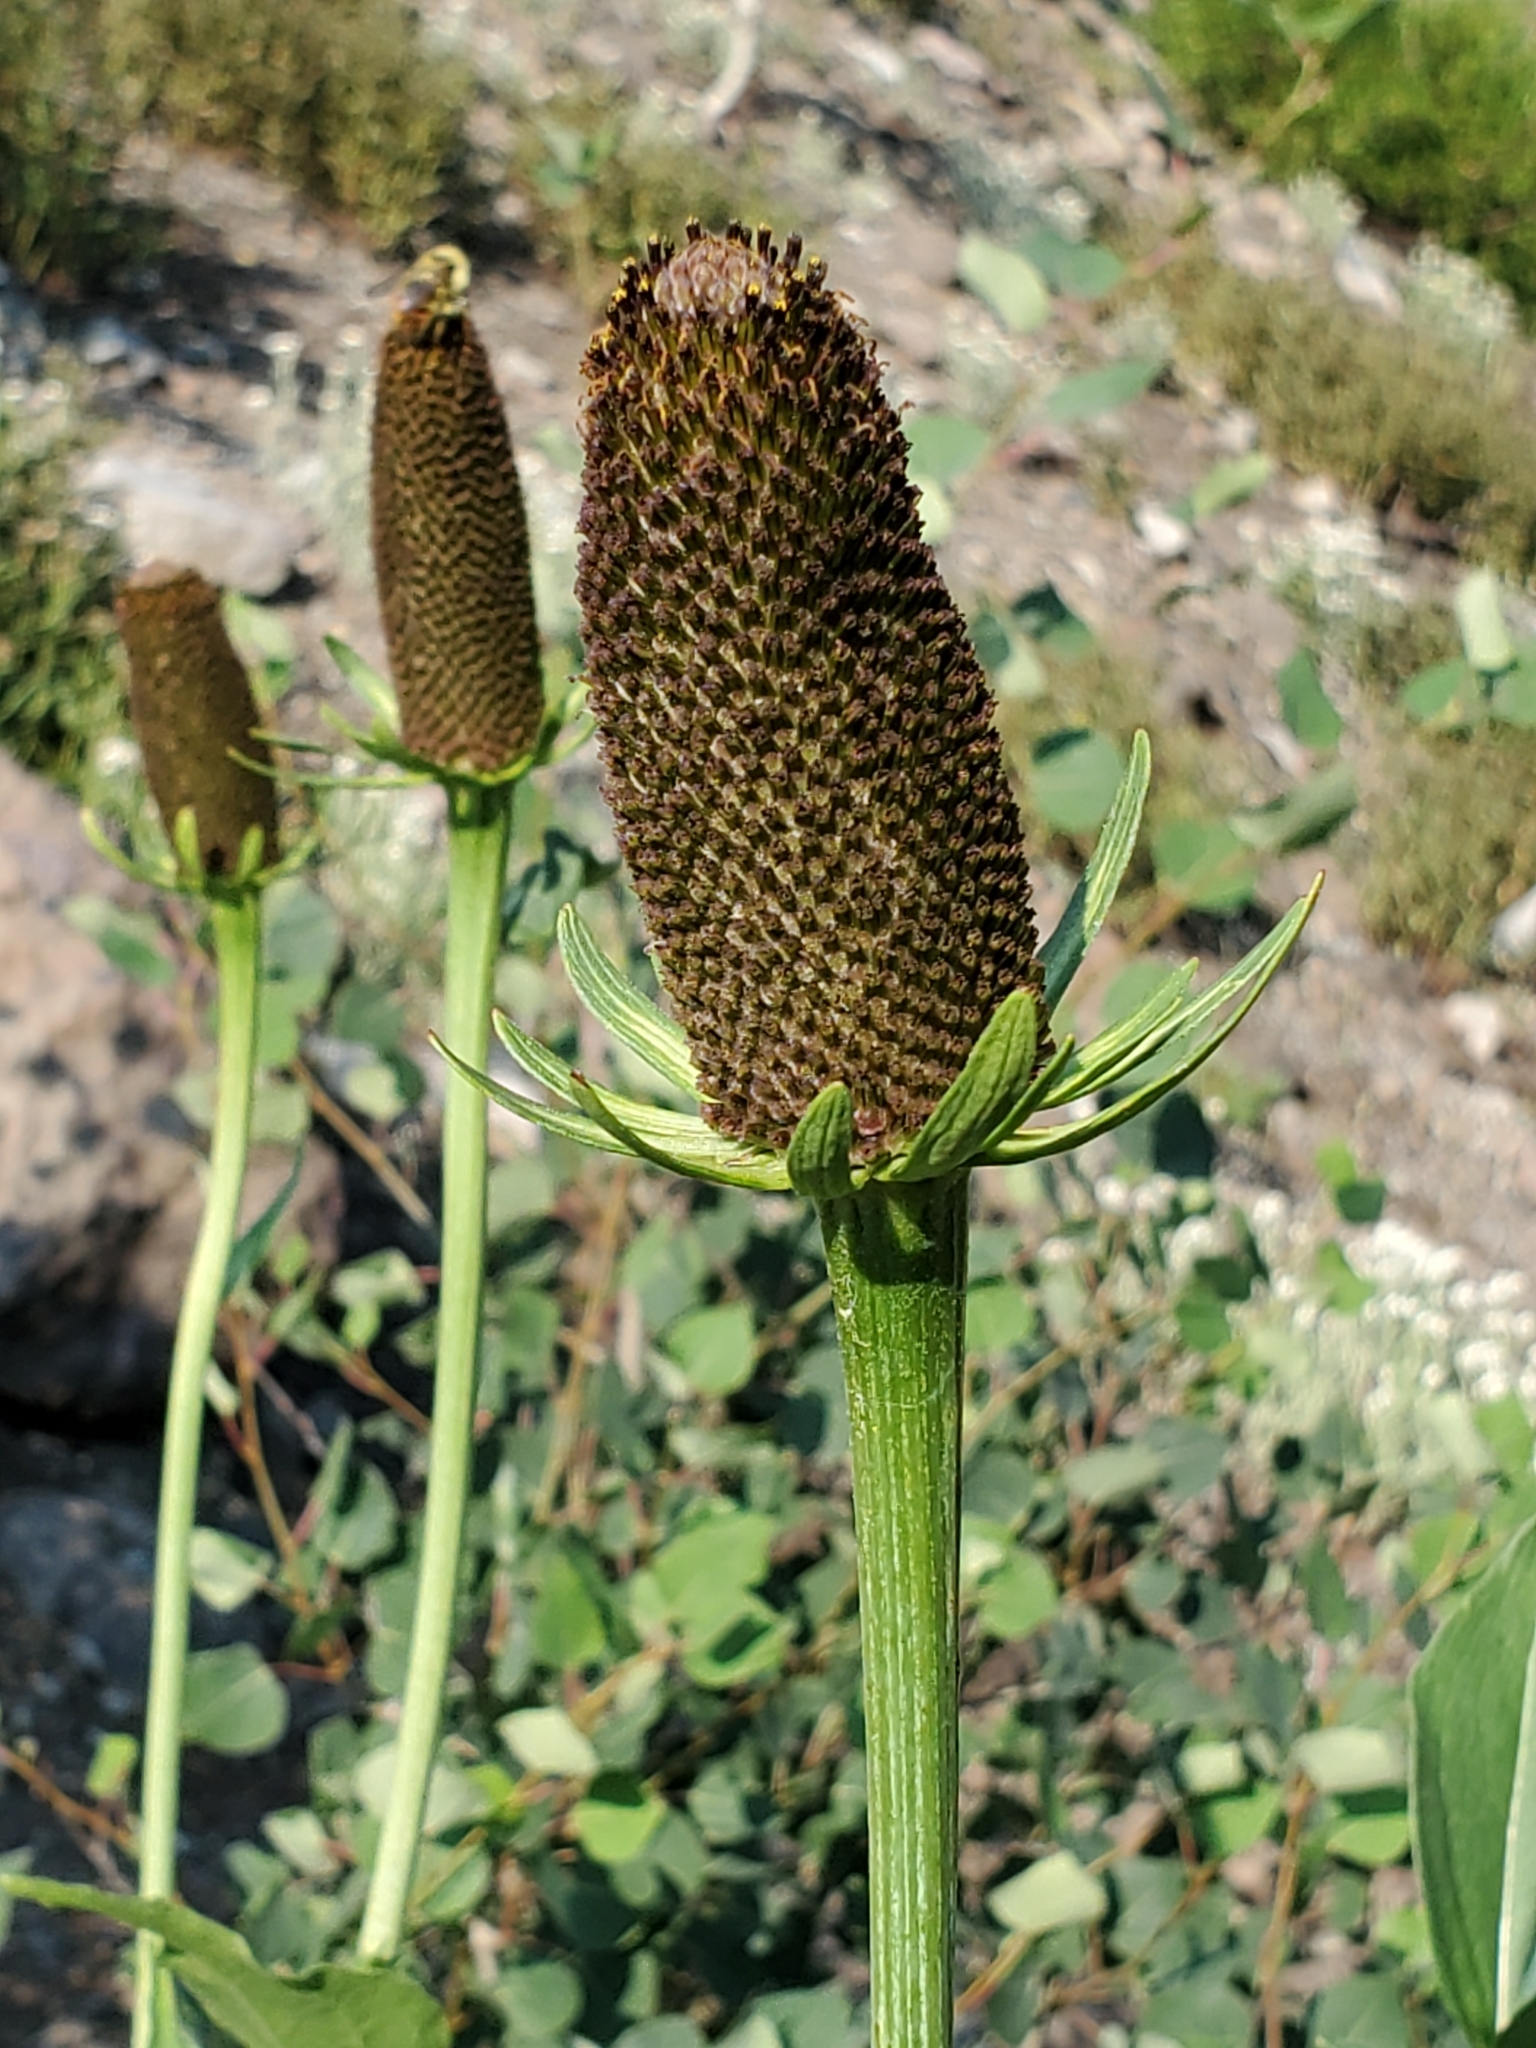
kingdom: Plantae
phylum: Tracheophyta
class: Magnoliopsida
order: Asterales
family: Asteraceae
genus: Rudbeckia
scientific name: Rudbeckia occidentalis
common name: Western coneflower
